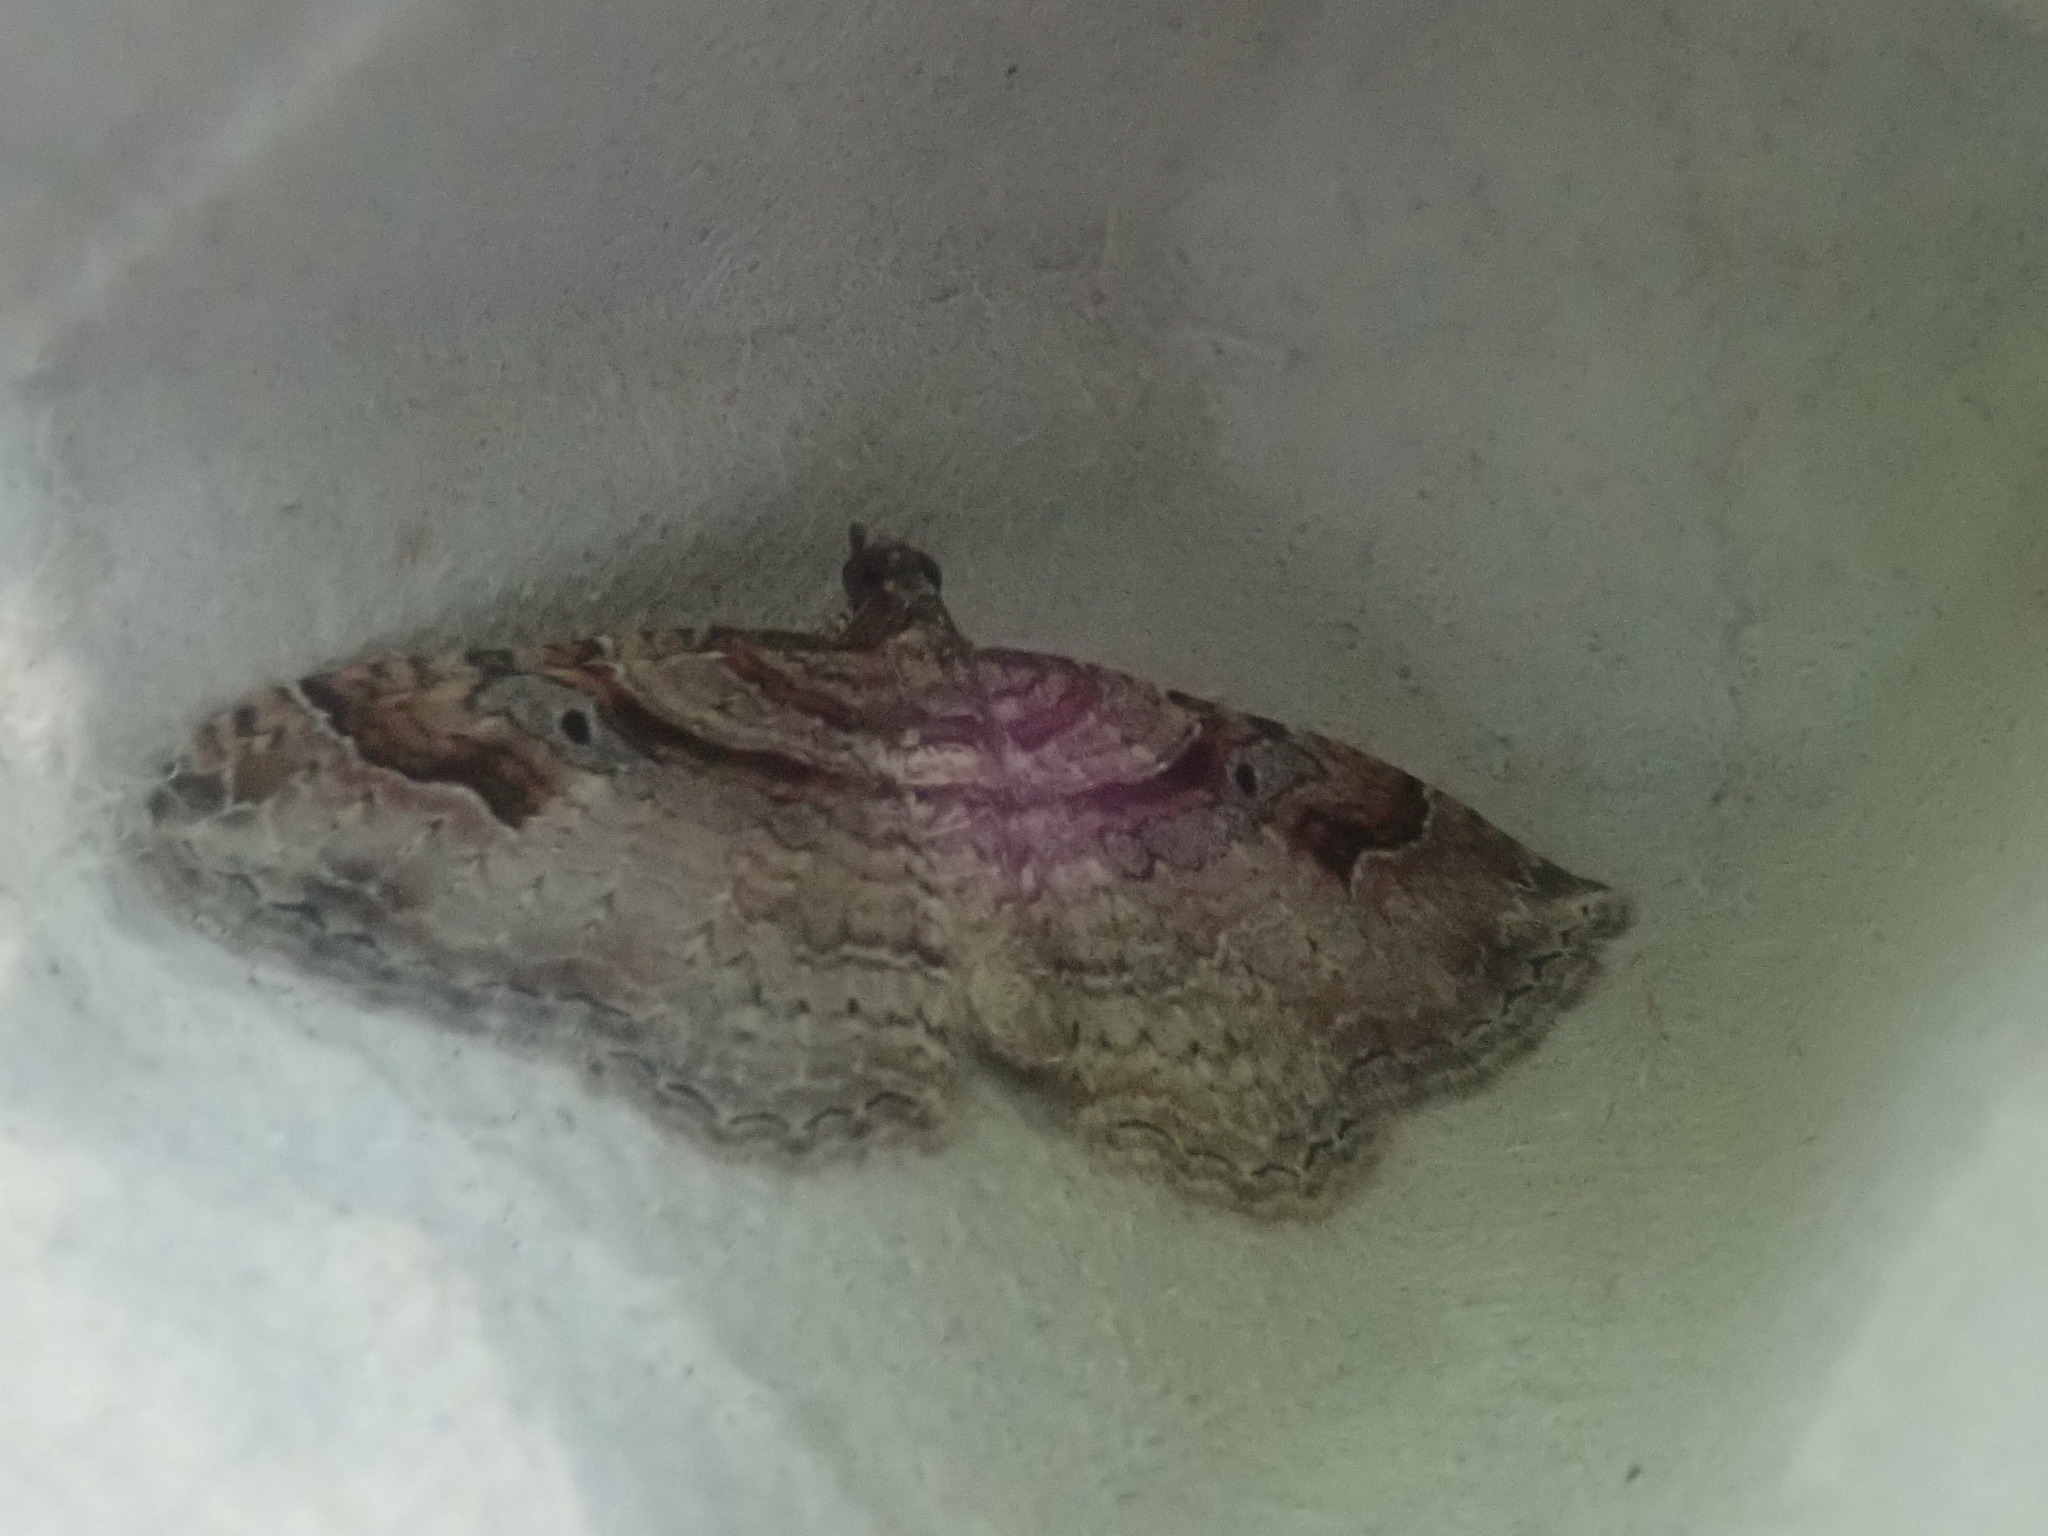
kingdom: Animalia
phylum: Arthropoda
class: Insecta
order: Lepidoptera
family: Geometridae
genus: Costaconvexa
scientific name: Costaconvexa centrostrigaria
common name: Bent-line carpet
